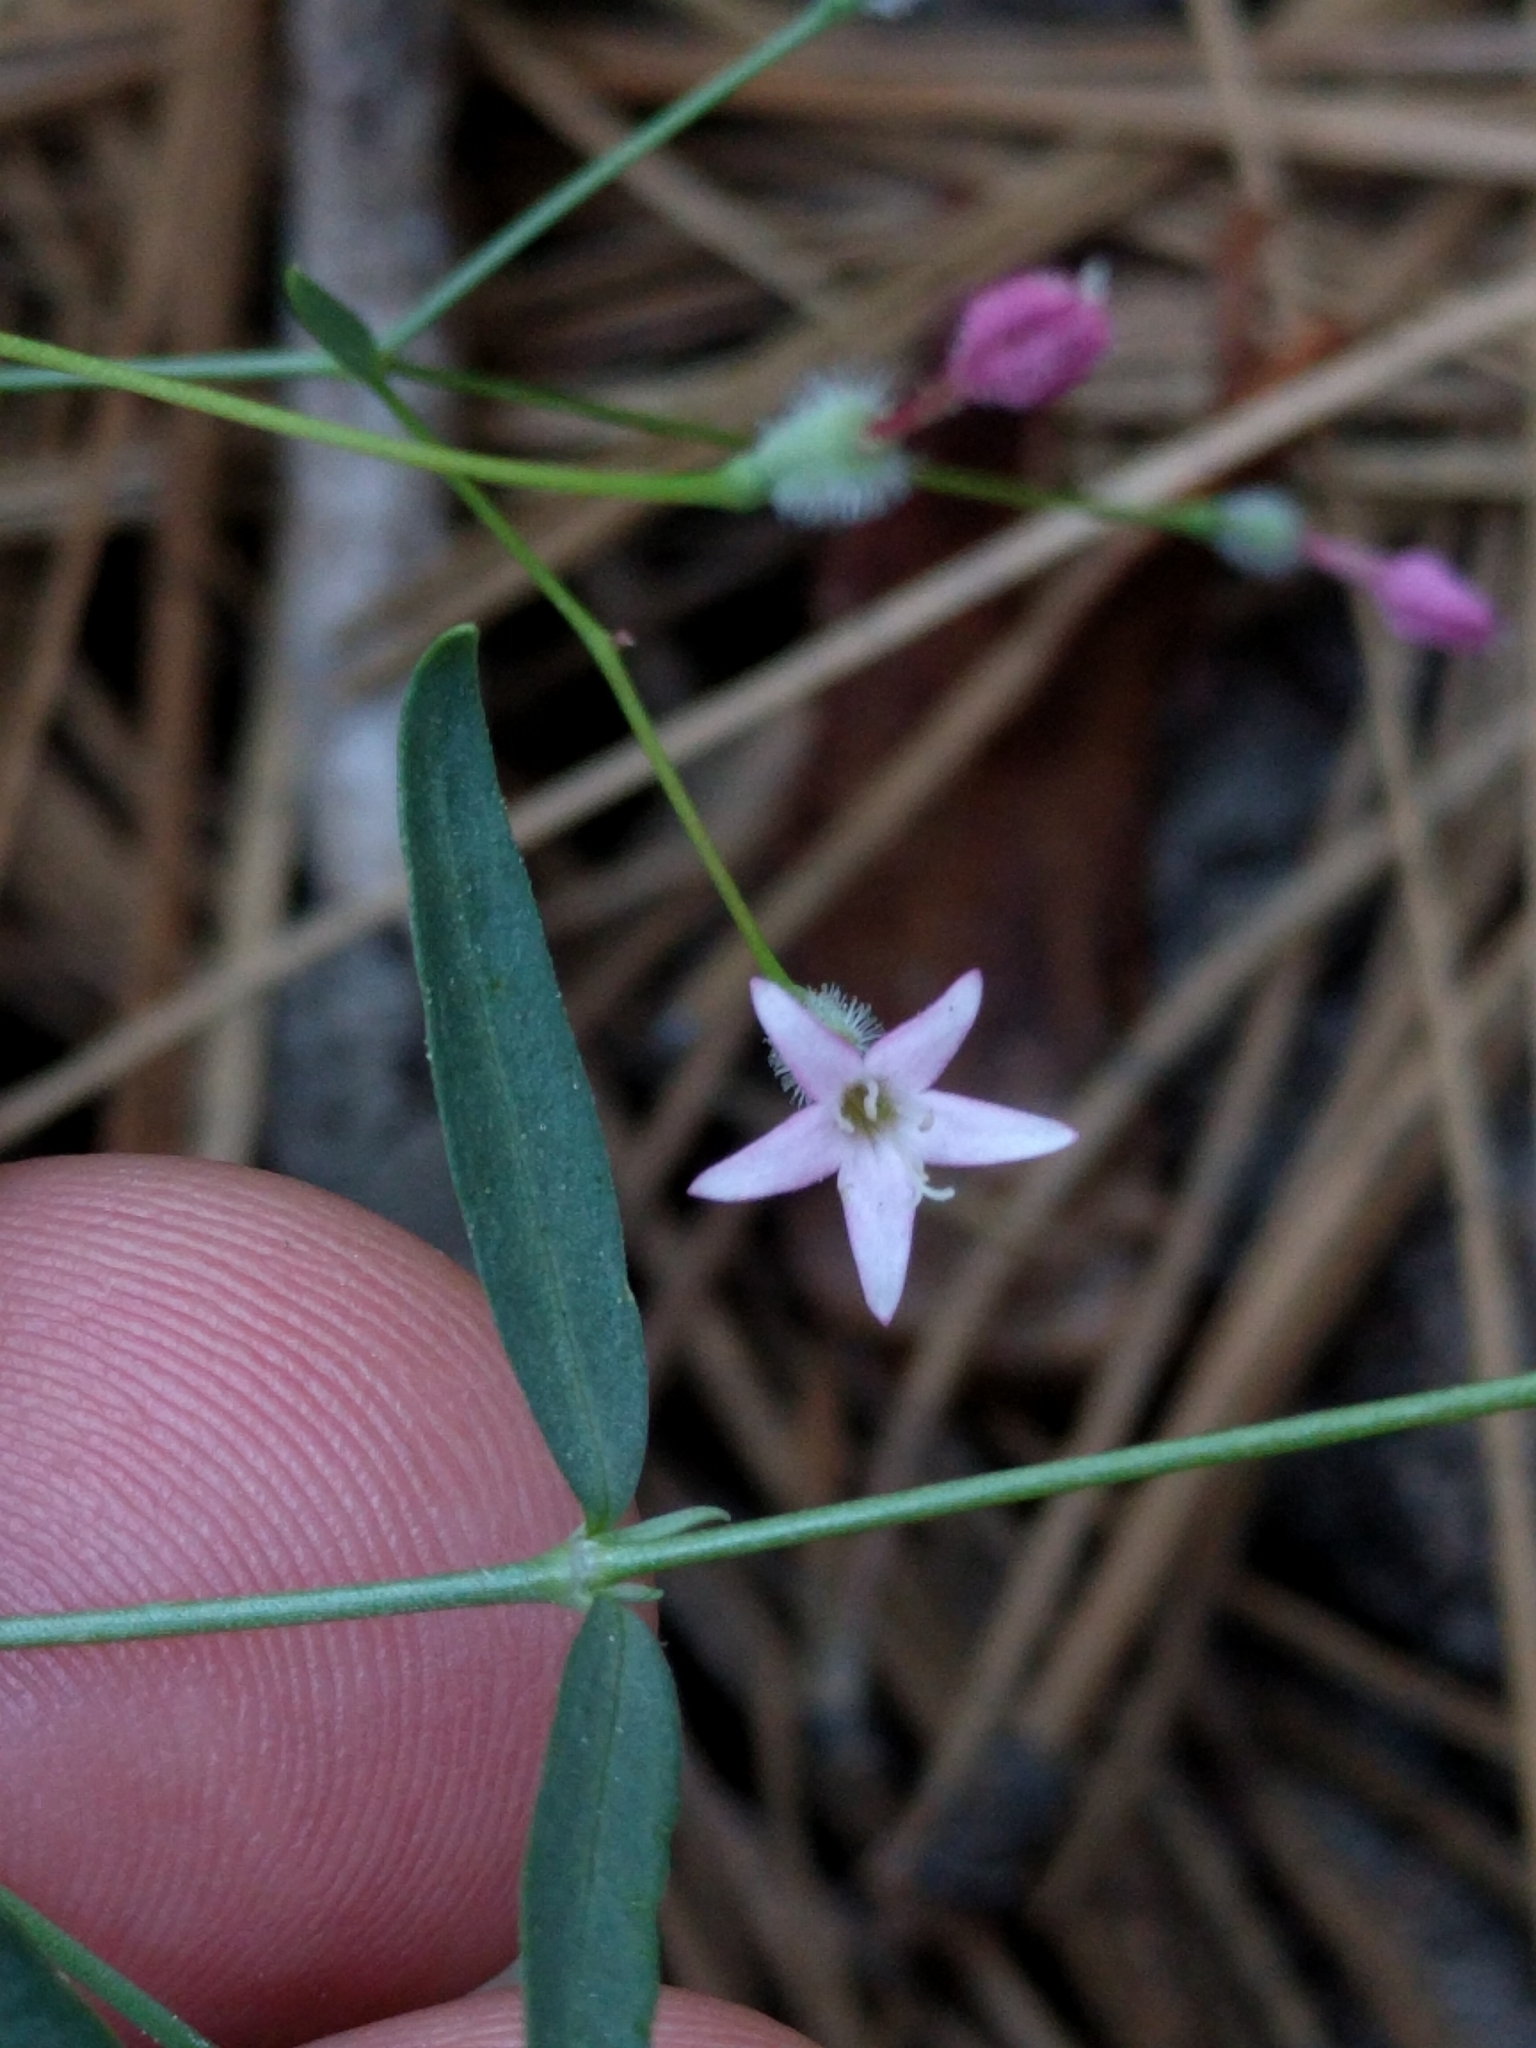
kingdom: Plantae
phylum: Tracheophyta
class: Magnoliopsida
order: Gentianales
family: Rubiaceae
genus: Kelloggia
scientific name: Kelloggia galioides
